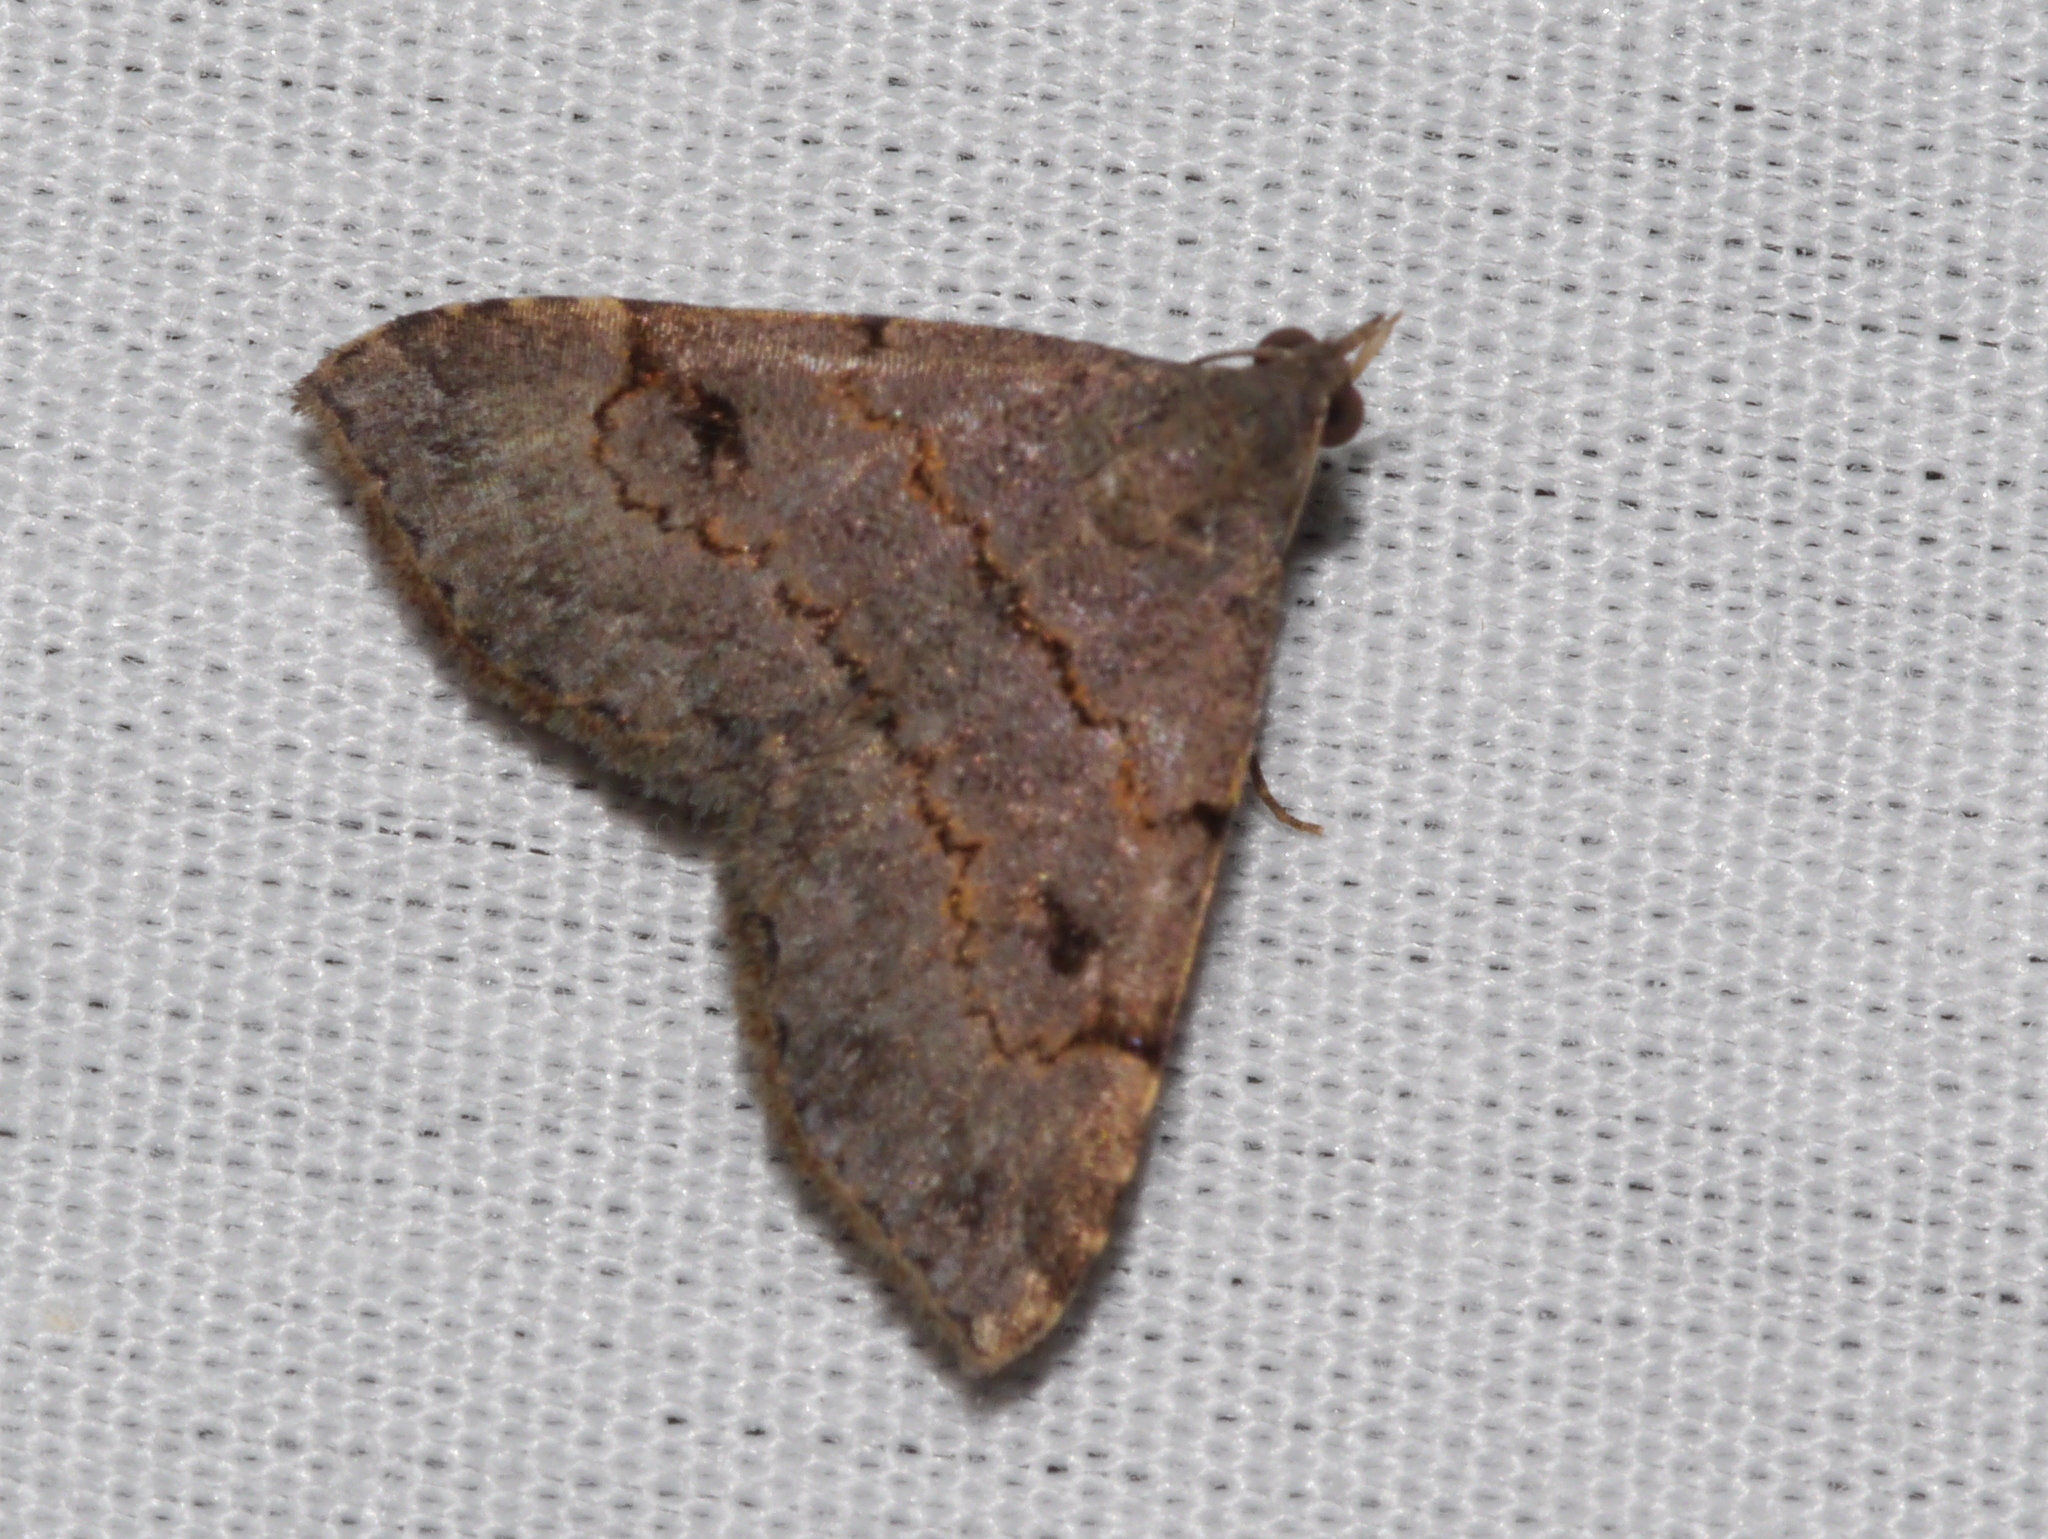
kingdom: Animalia
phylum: Arthropoda
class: Insecta
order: Lepidoptera
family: Erebidae
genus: Nychioptera
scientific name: Nychioptera noctuidalis
